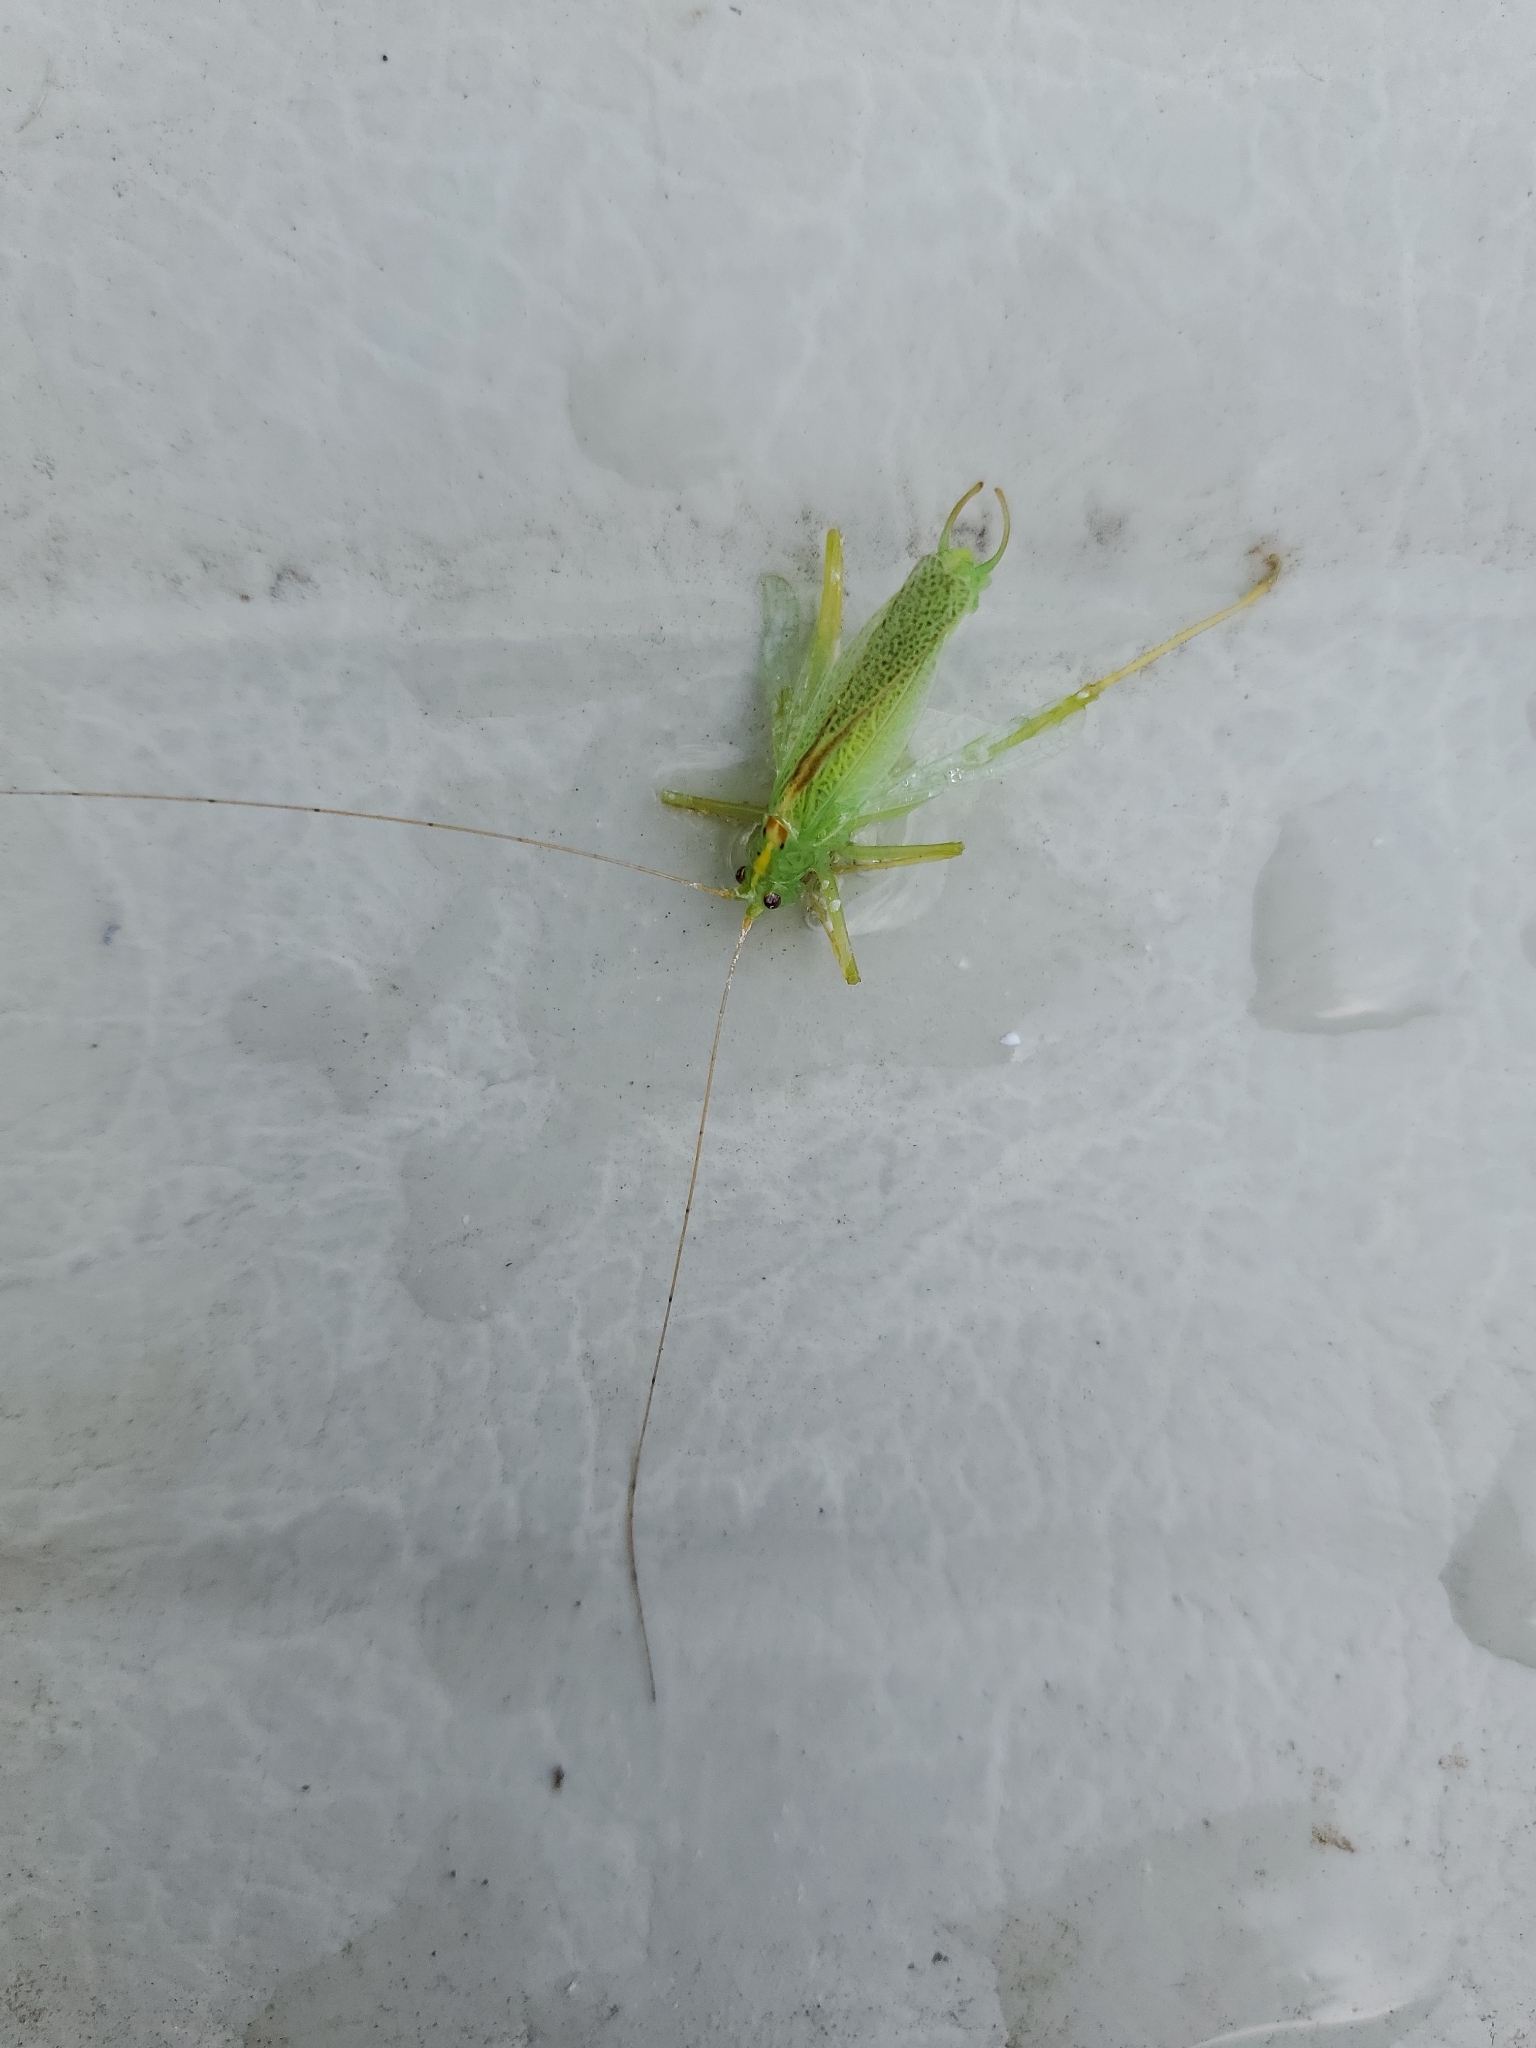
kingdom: Animalia
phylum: Arthropoda
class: Insecta
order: Orthoptera
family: Tettigoniidae
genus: Meconema
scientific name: Meconema thalassinum
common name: Oak bush-cricket
